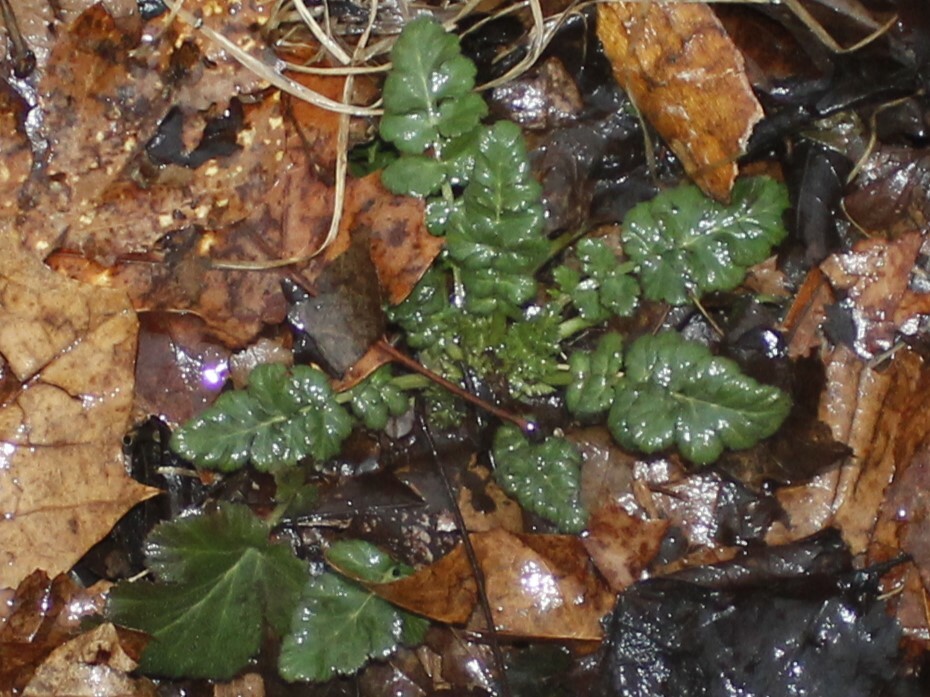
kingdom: Plantae
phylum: Tracheophyta
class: Magnoliopsida
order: Rosales
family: Rosaceae
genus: Geum
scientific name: Geum canadense
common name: White avens
